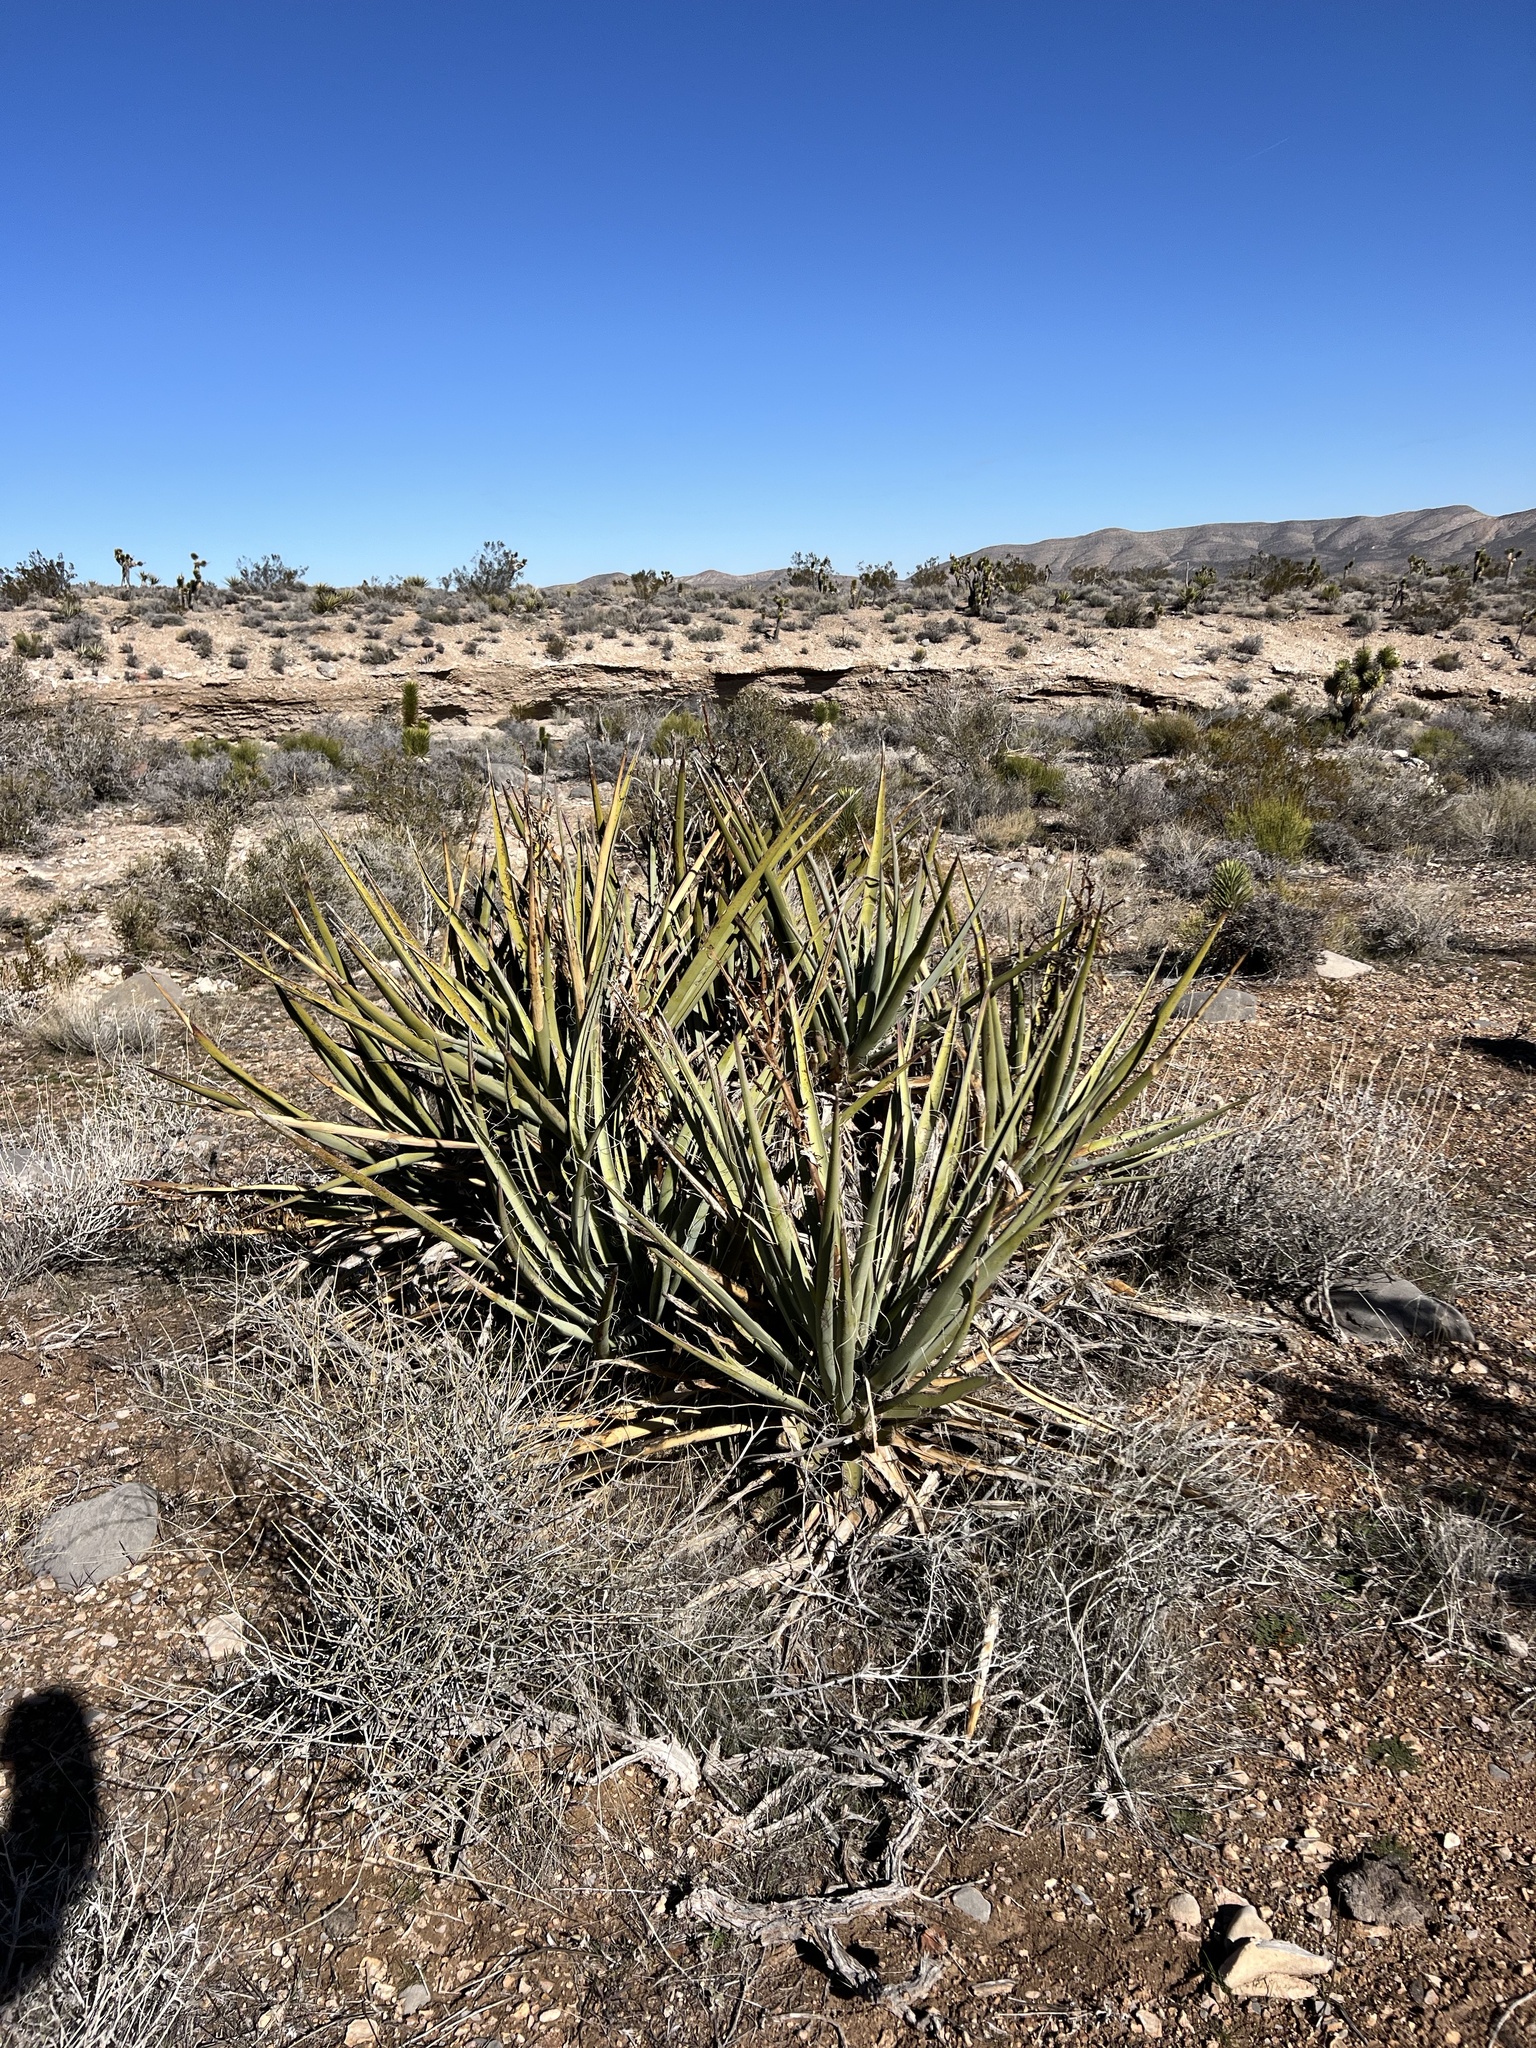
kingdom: Plantae
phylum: Tracheophyta
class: Liliopsida
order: Asparagales
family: Asparagaceae
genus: Yucca
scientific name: Yucca baccata
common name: Banana yucca
